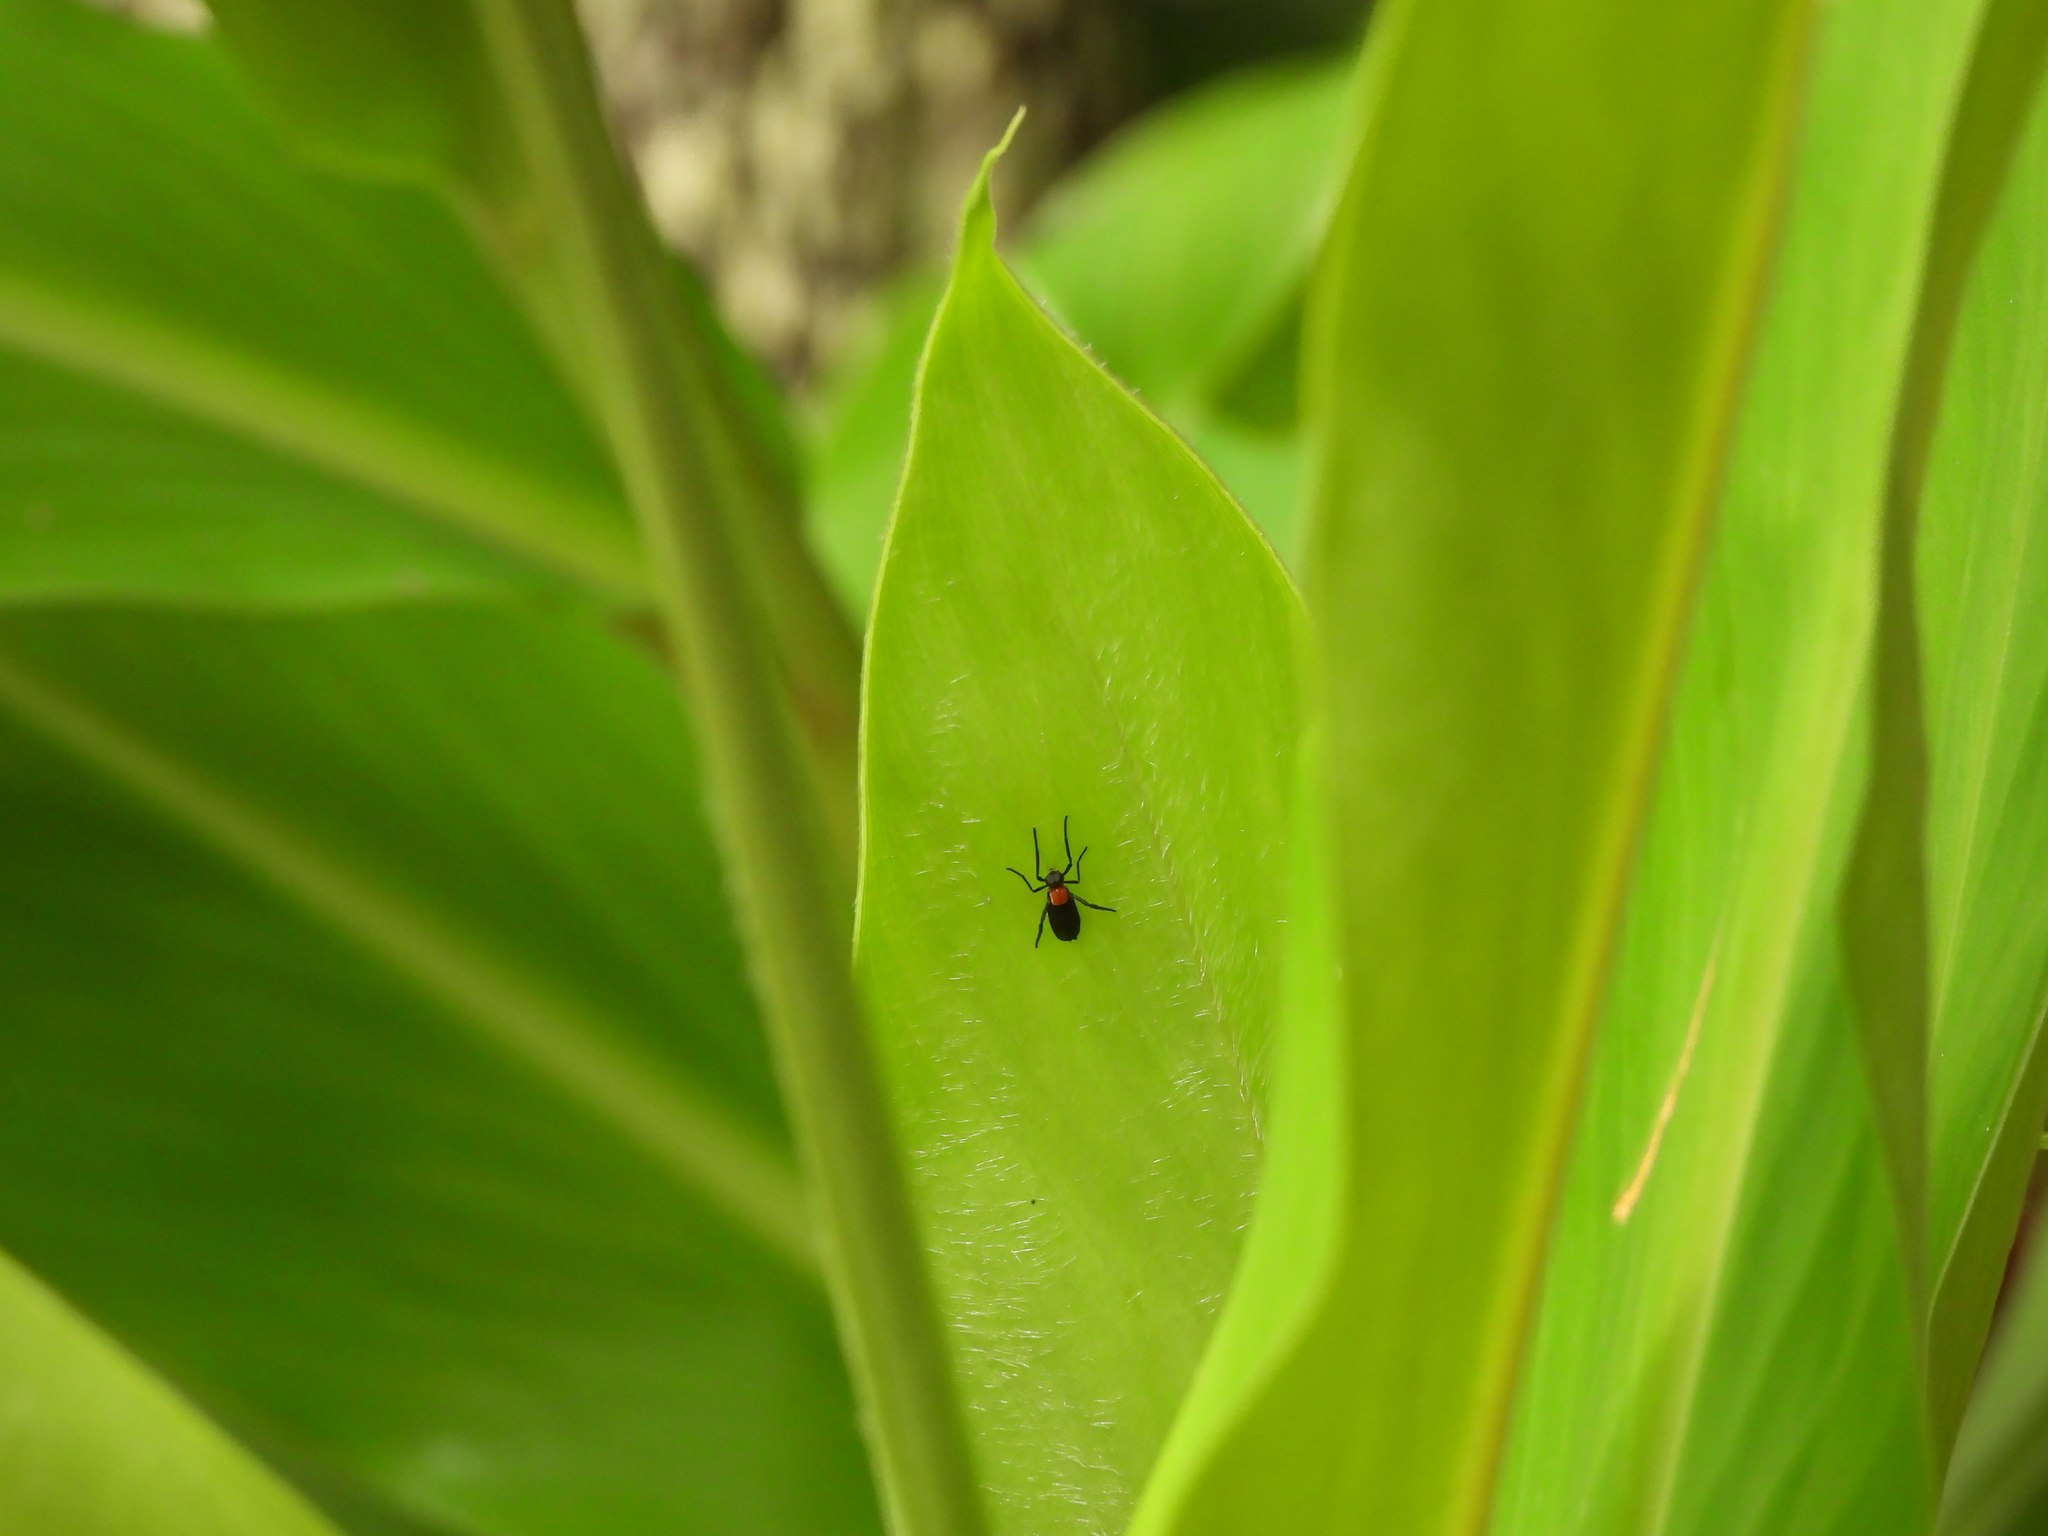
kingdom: Animalia
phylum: Arthropoda
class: Insecta
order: Diptera
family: Bibionidae
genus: Plecia
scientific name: Plecia nearctica
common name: March fly
